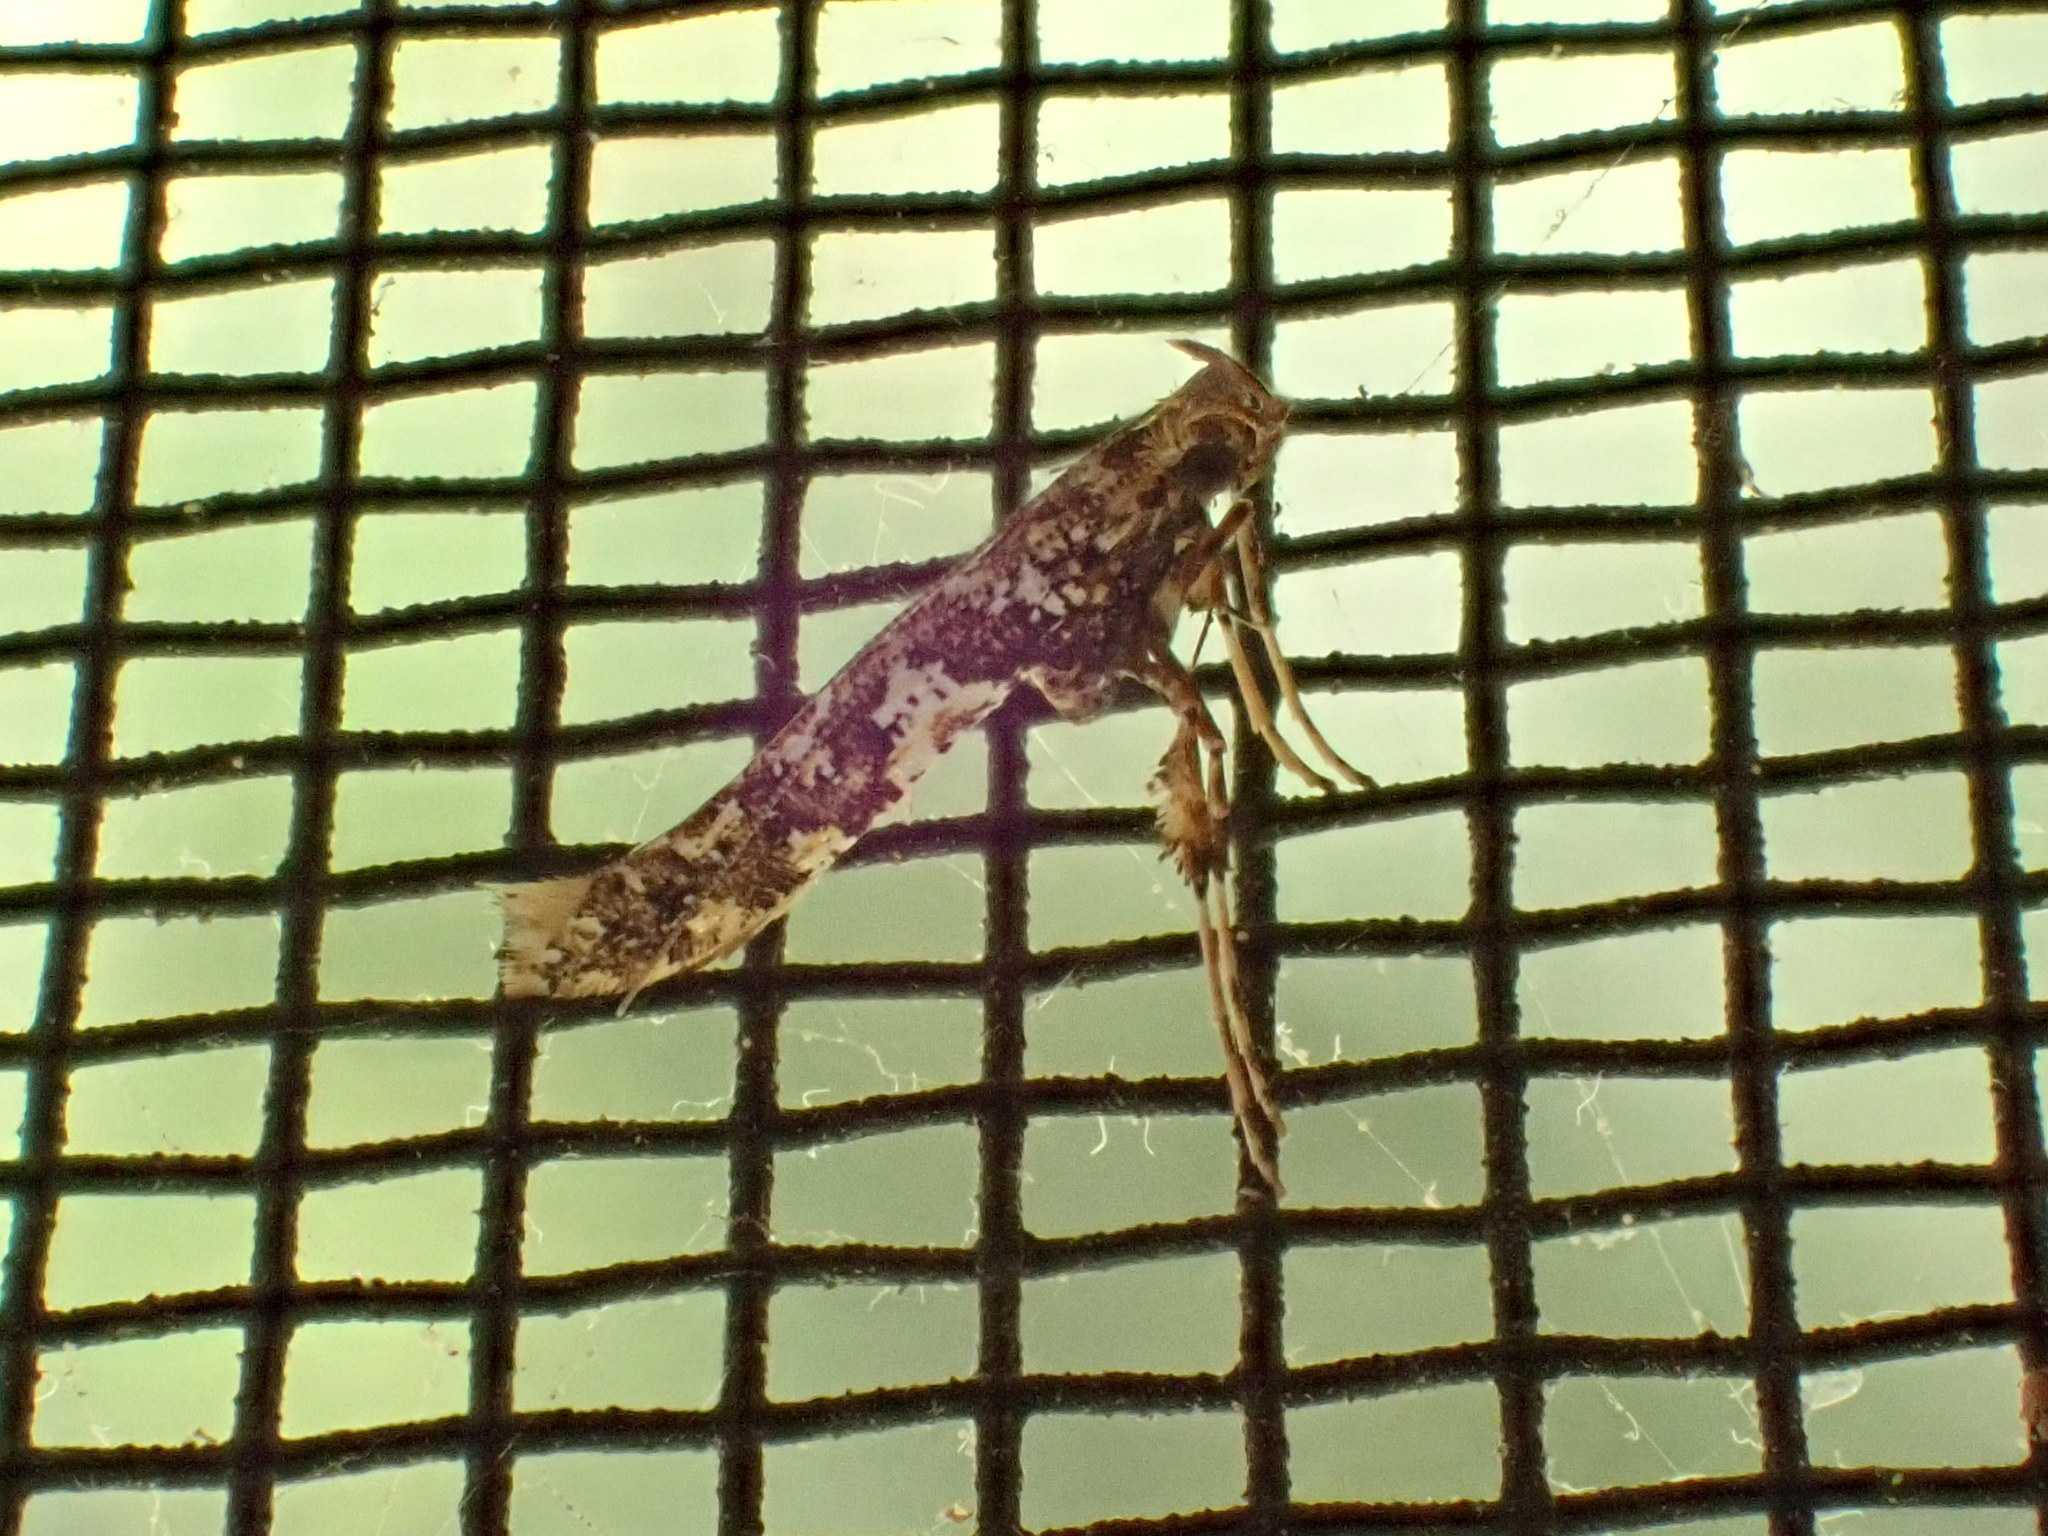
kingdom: Animalia
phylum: Arthropoda
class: Insecta
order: Lepidoptera
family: Gracillariidae
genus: Caloptilia
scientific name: Caloptilia serotinella
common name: Cherry leafroller moth
